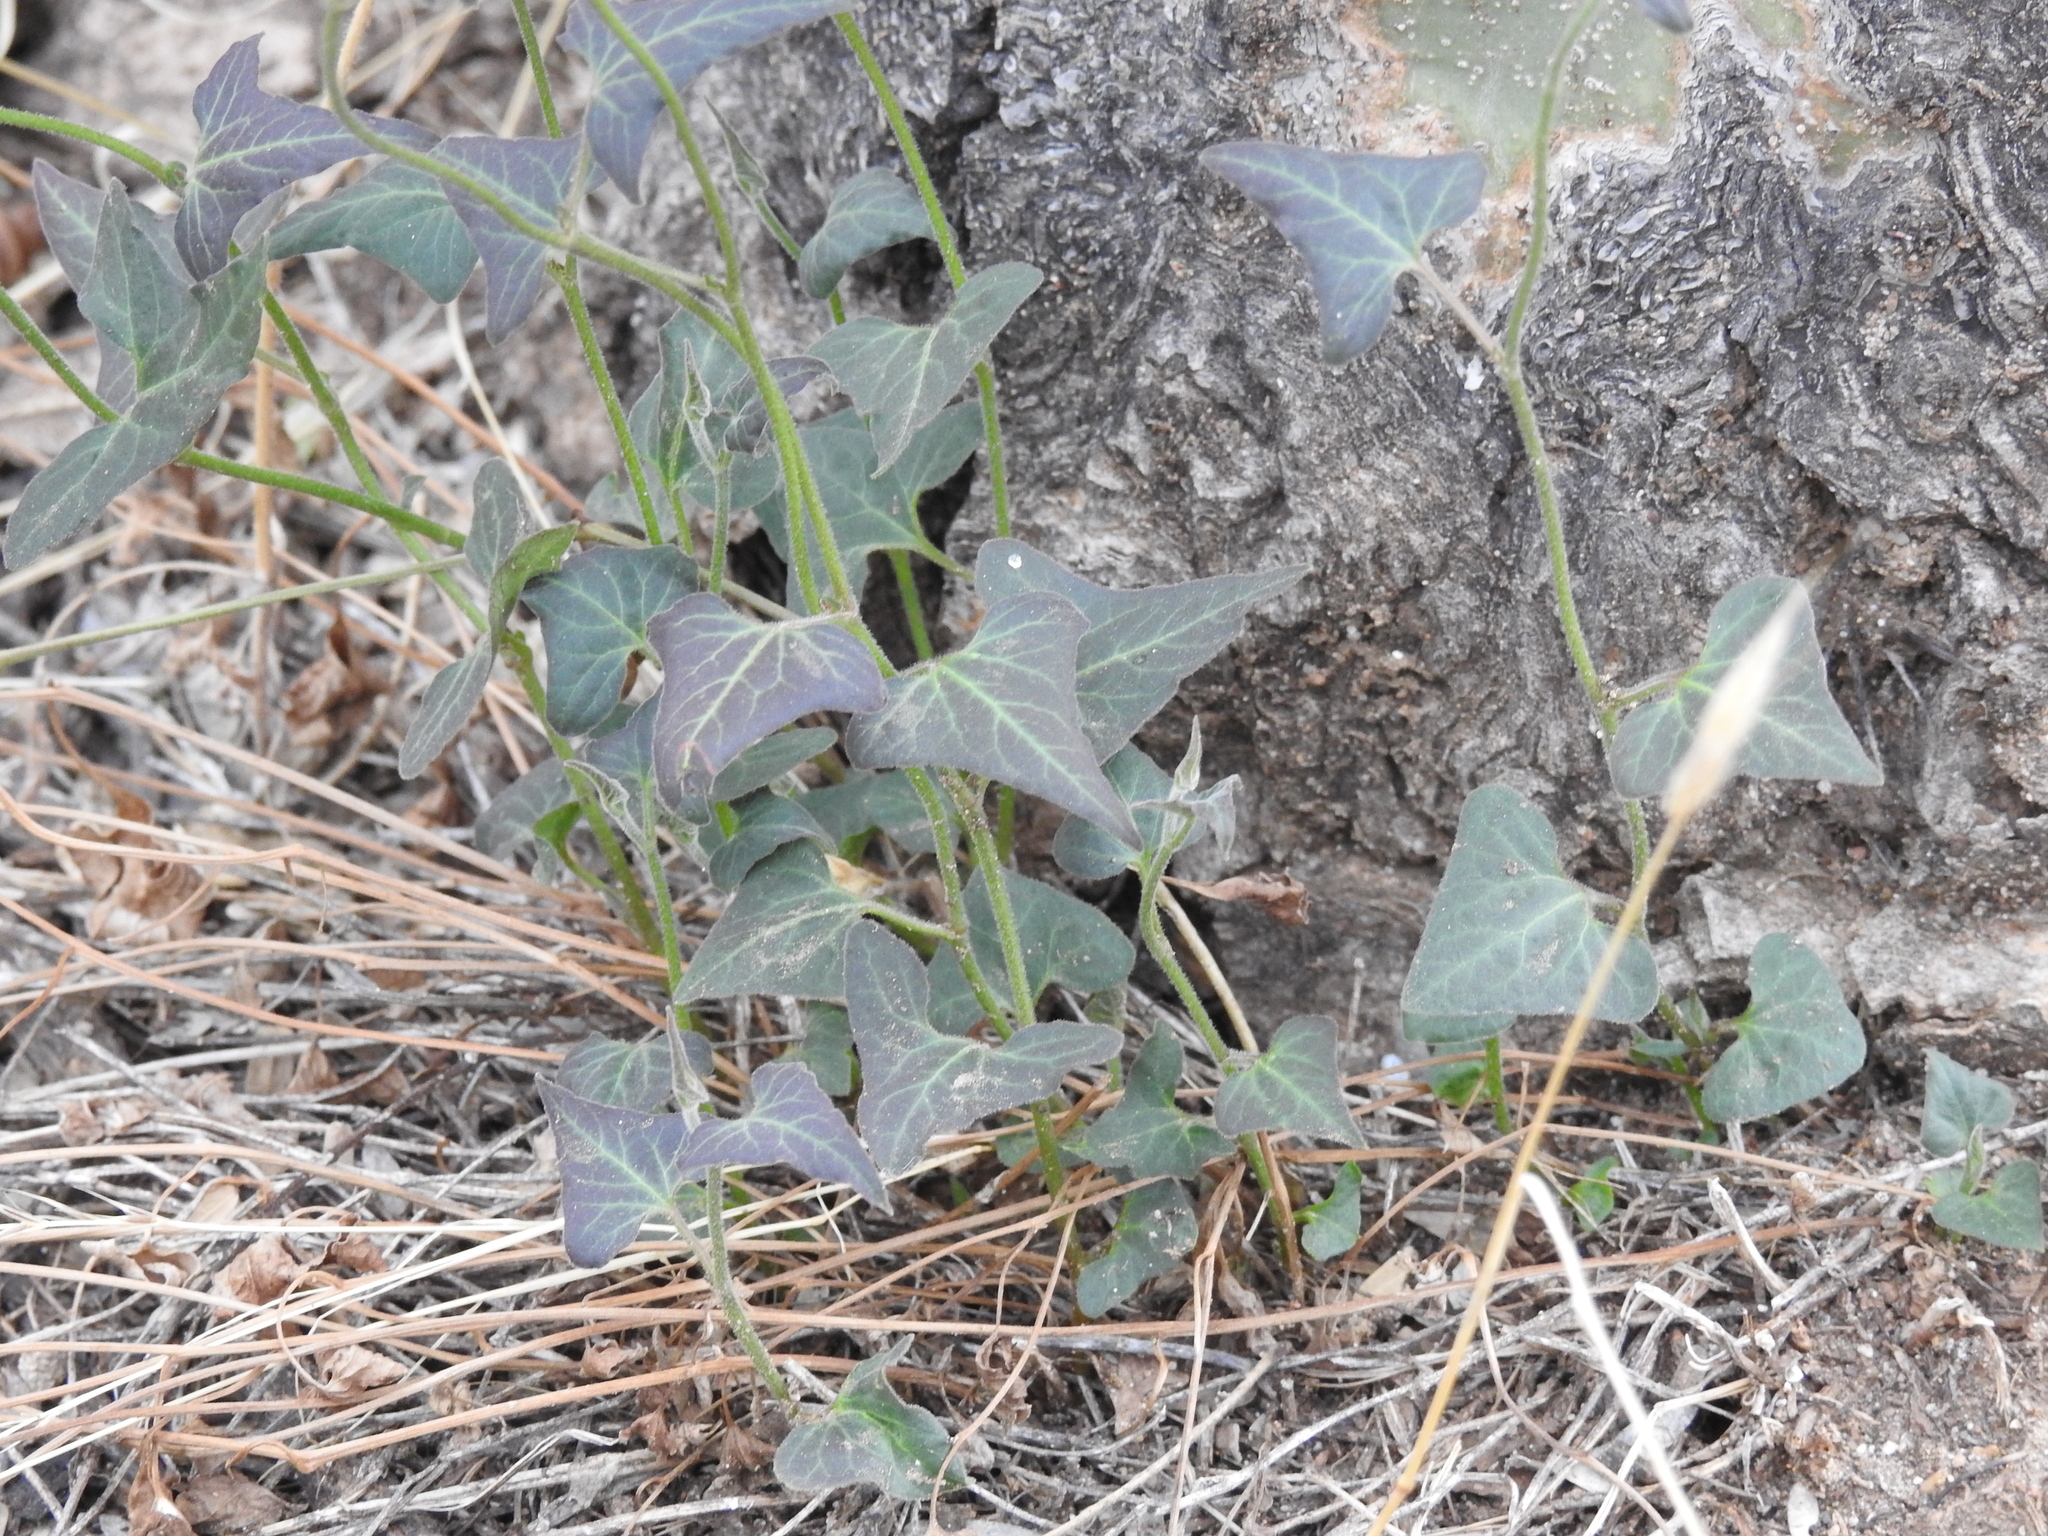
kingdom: Plantae
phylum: Tracheophyta
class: Magnoliopsida
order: Piperales
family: Aristolochiaceae
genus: Aristolochia
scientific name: Aristolochia watsonii
